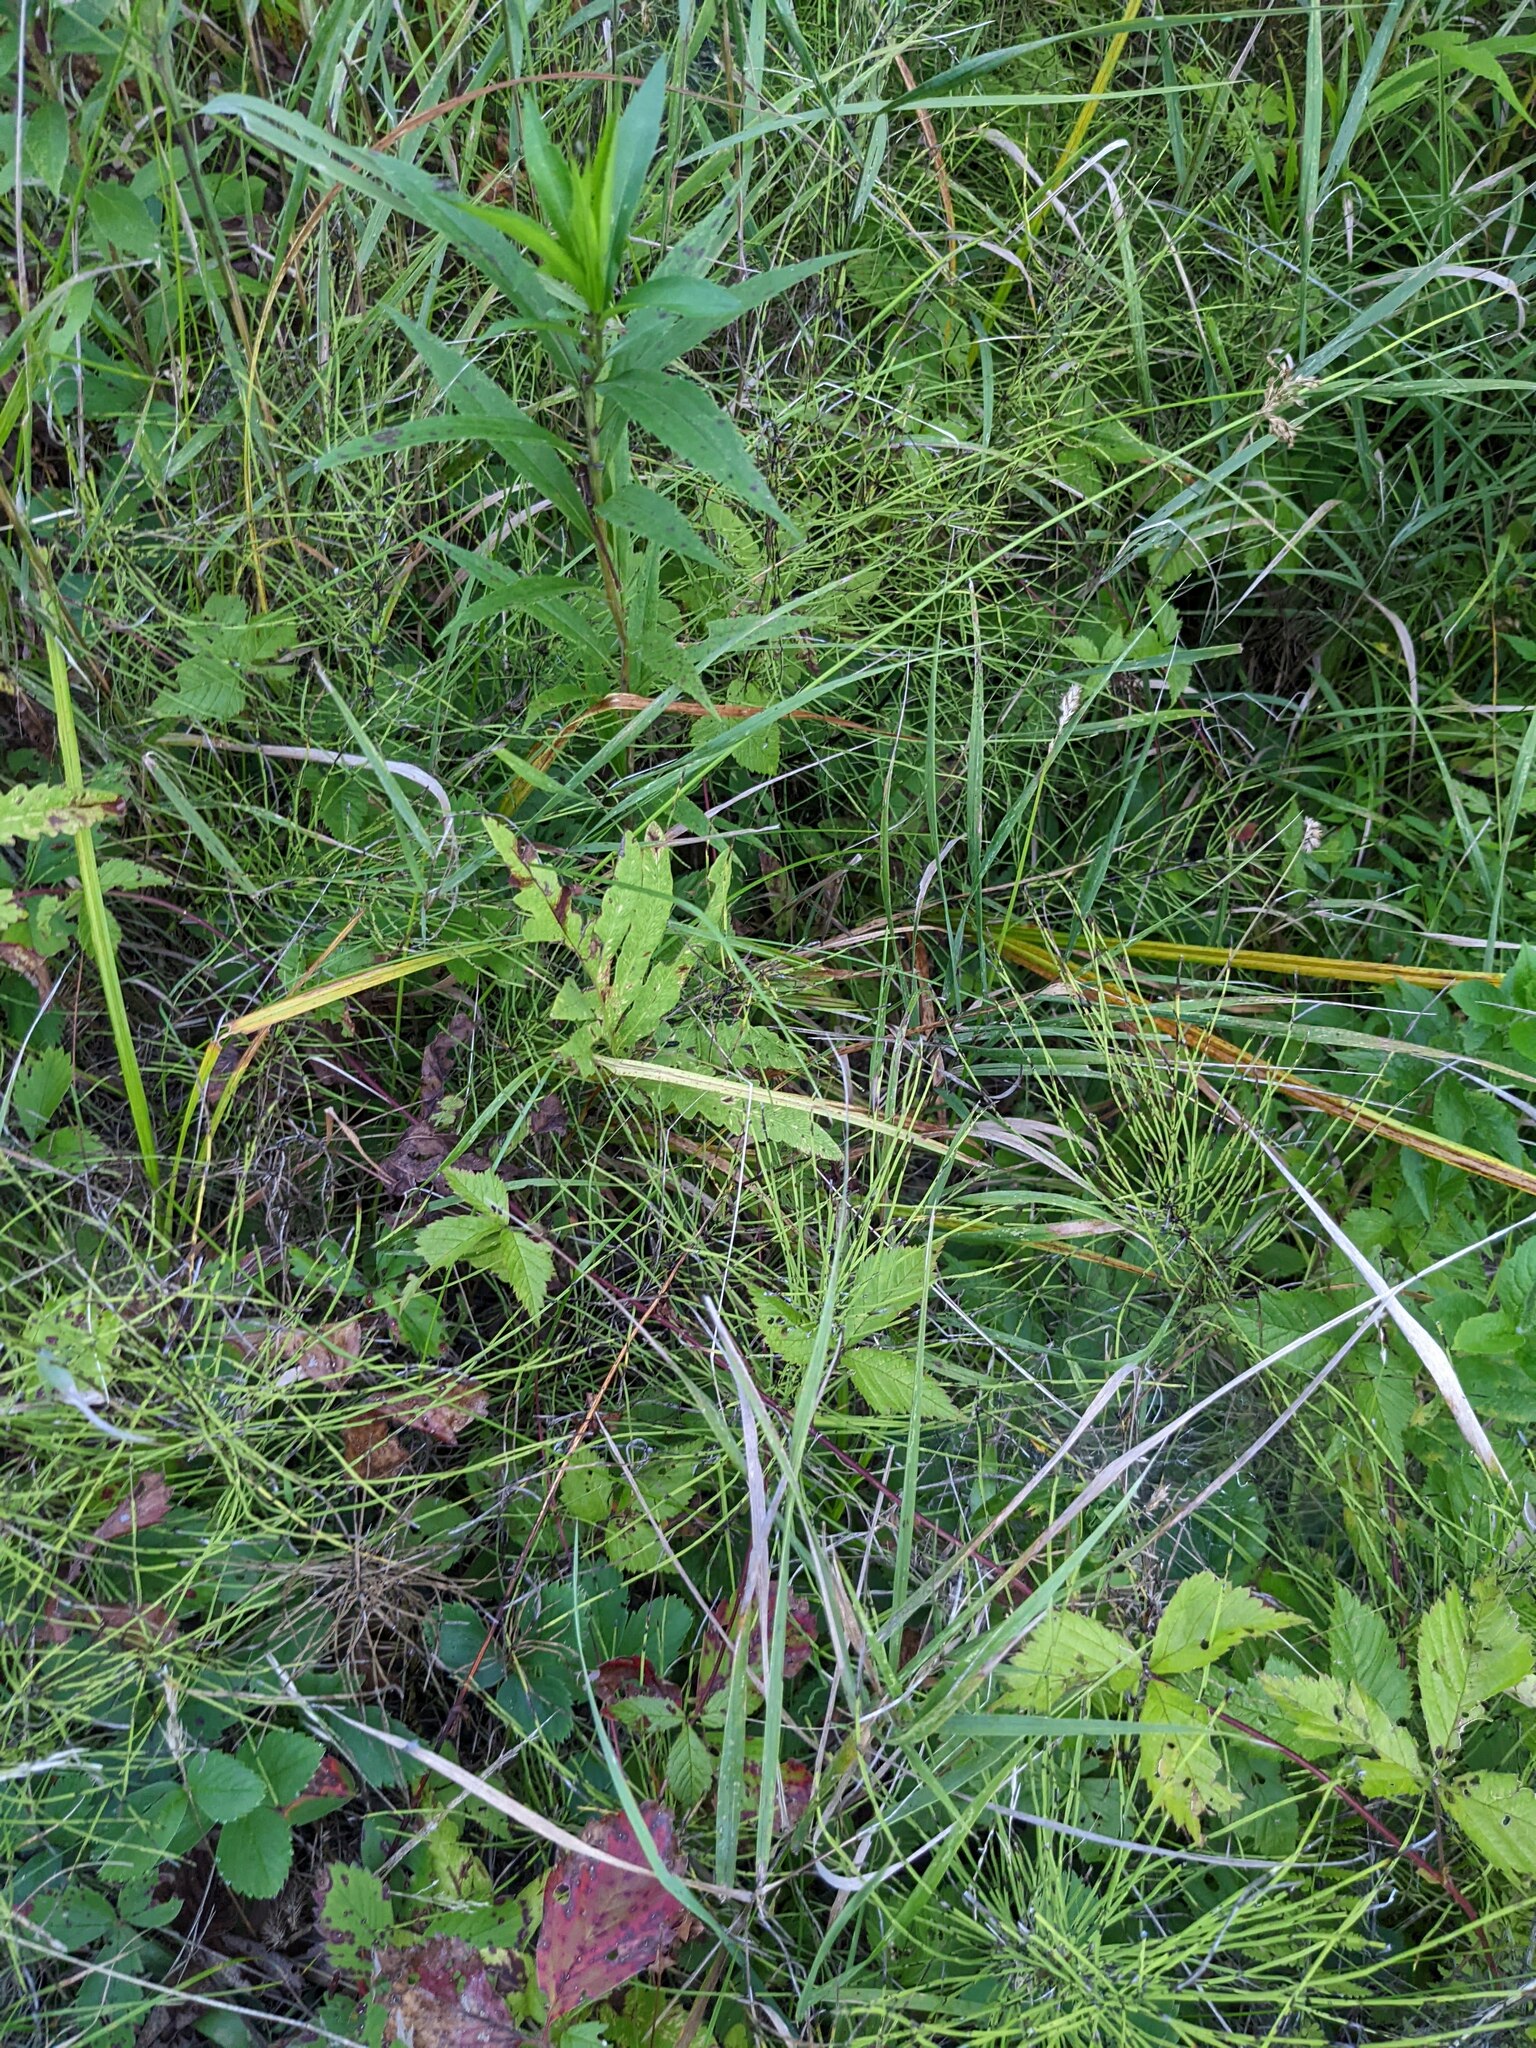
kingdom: Plantae
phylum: Tracheophyta
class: Polypodiopsida
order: Polypodiales
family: Onocleaceae
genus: Onoclea
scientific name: Onoclea sensibilis
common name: Sensitive fern
